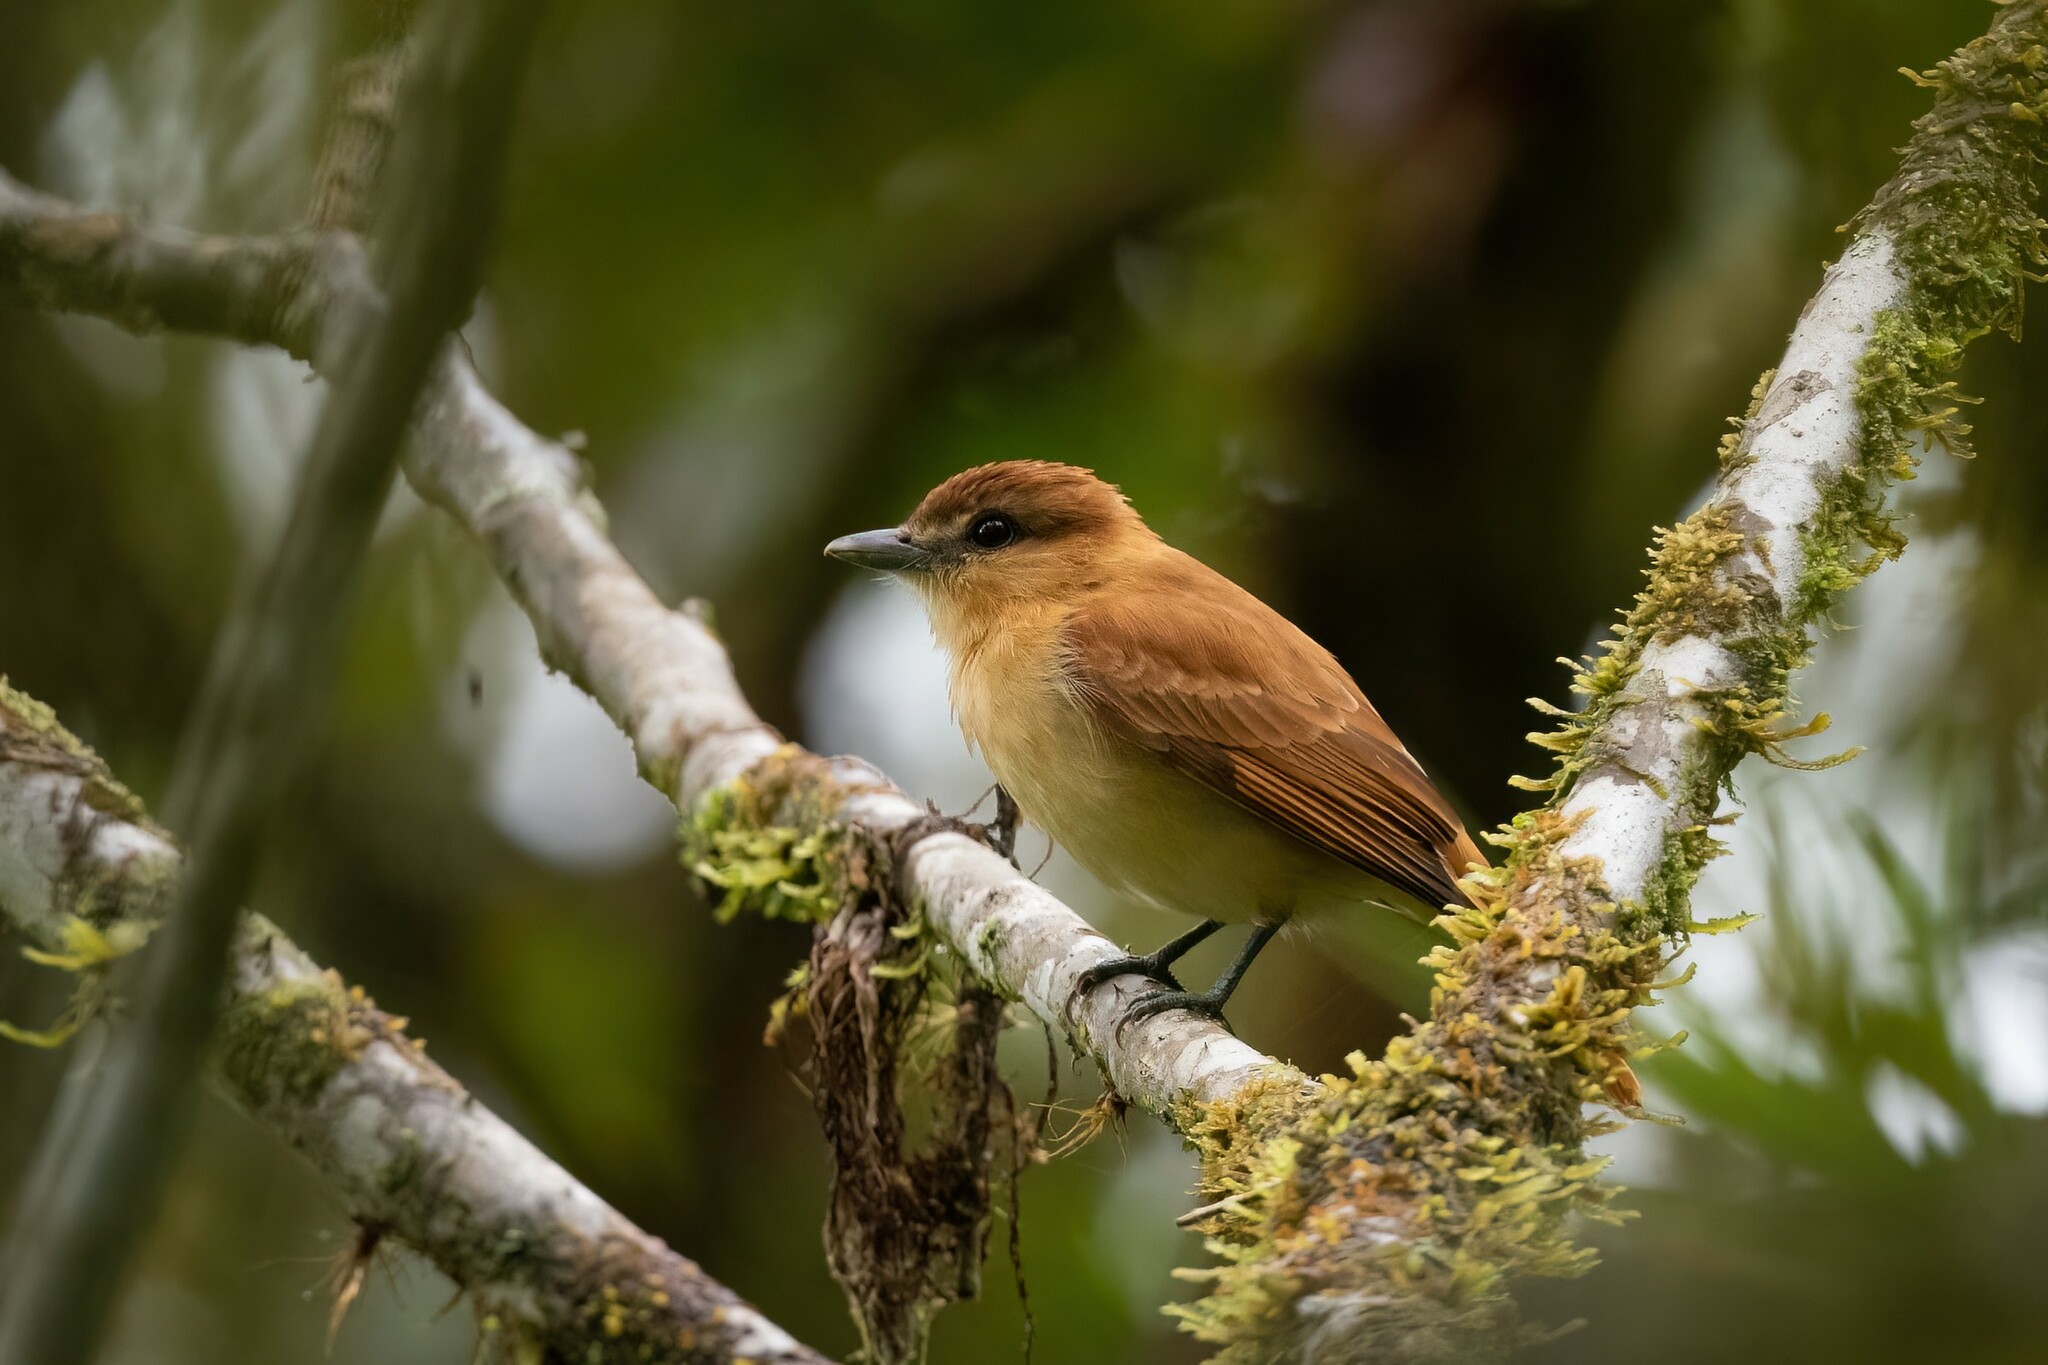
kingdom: Animalia
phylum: Chordata
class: Aves
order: Passeriformes
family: Cotingidae
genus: Pachyramphus
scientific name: Pachyramphus cinnamomeus
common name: Cinnamon becard
